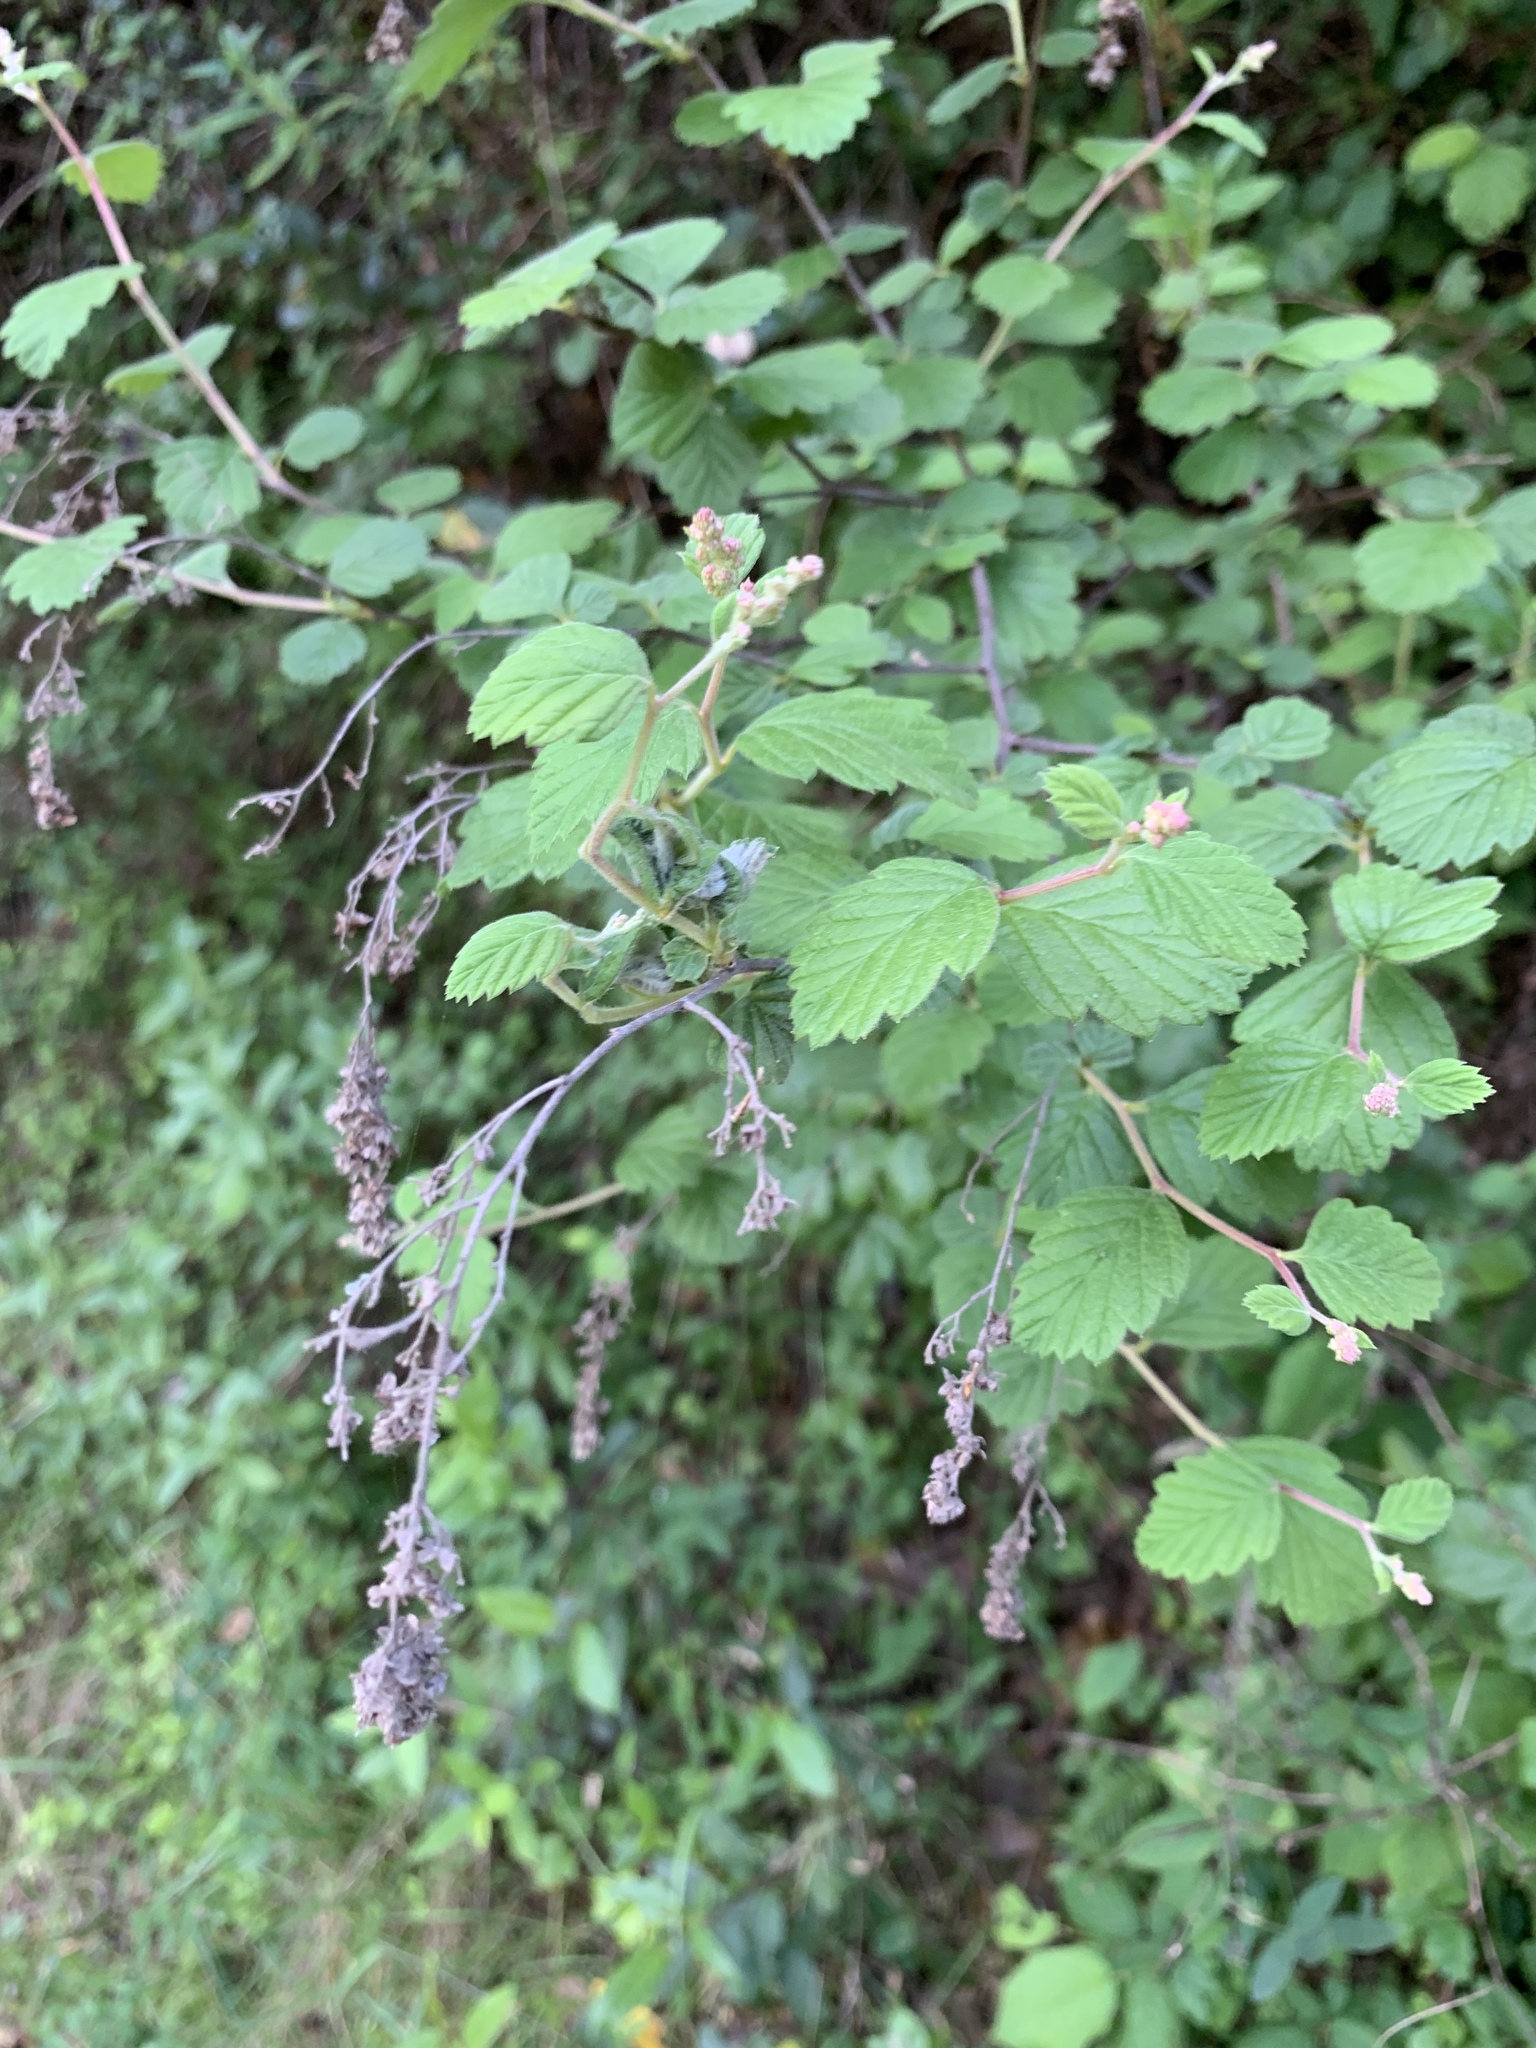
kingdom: Plantae
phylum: Tracheophyta
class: Magnoliopsida
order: Rosales
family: Rosaceae
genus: Holodiscus
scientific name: Holodiscus discolor
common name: Oceanspray
